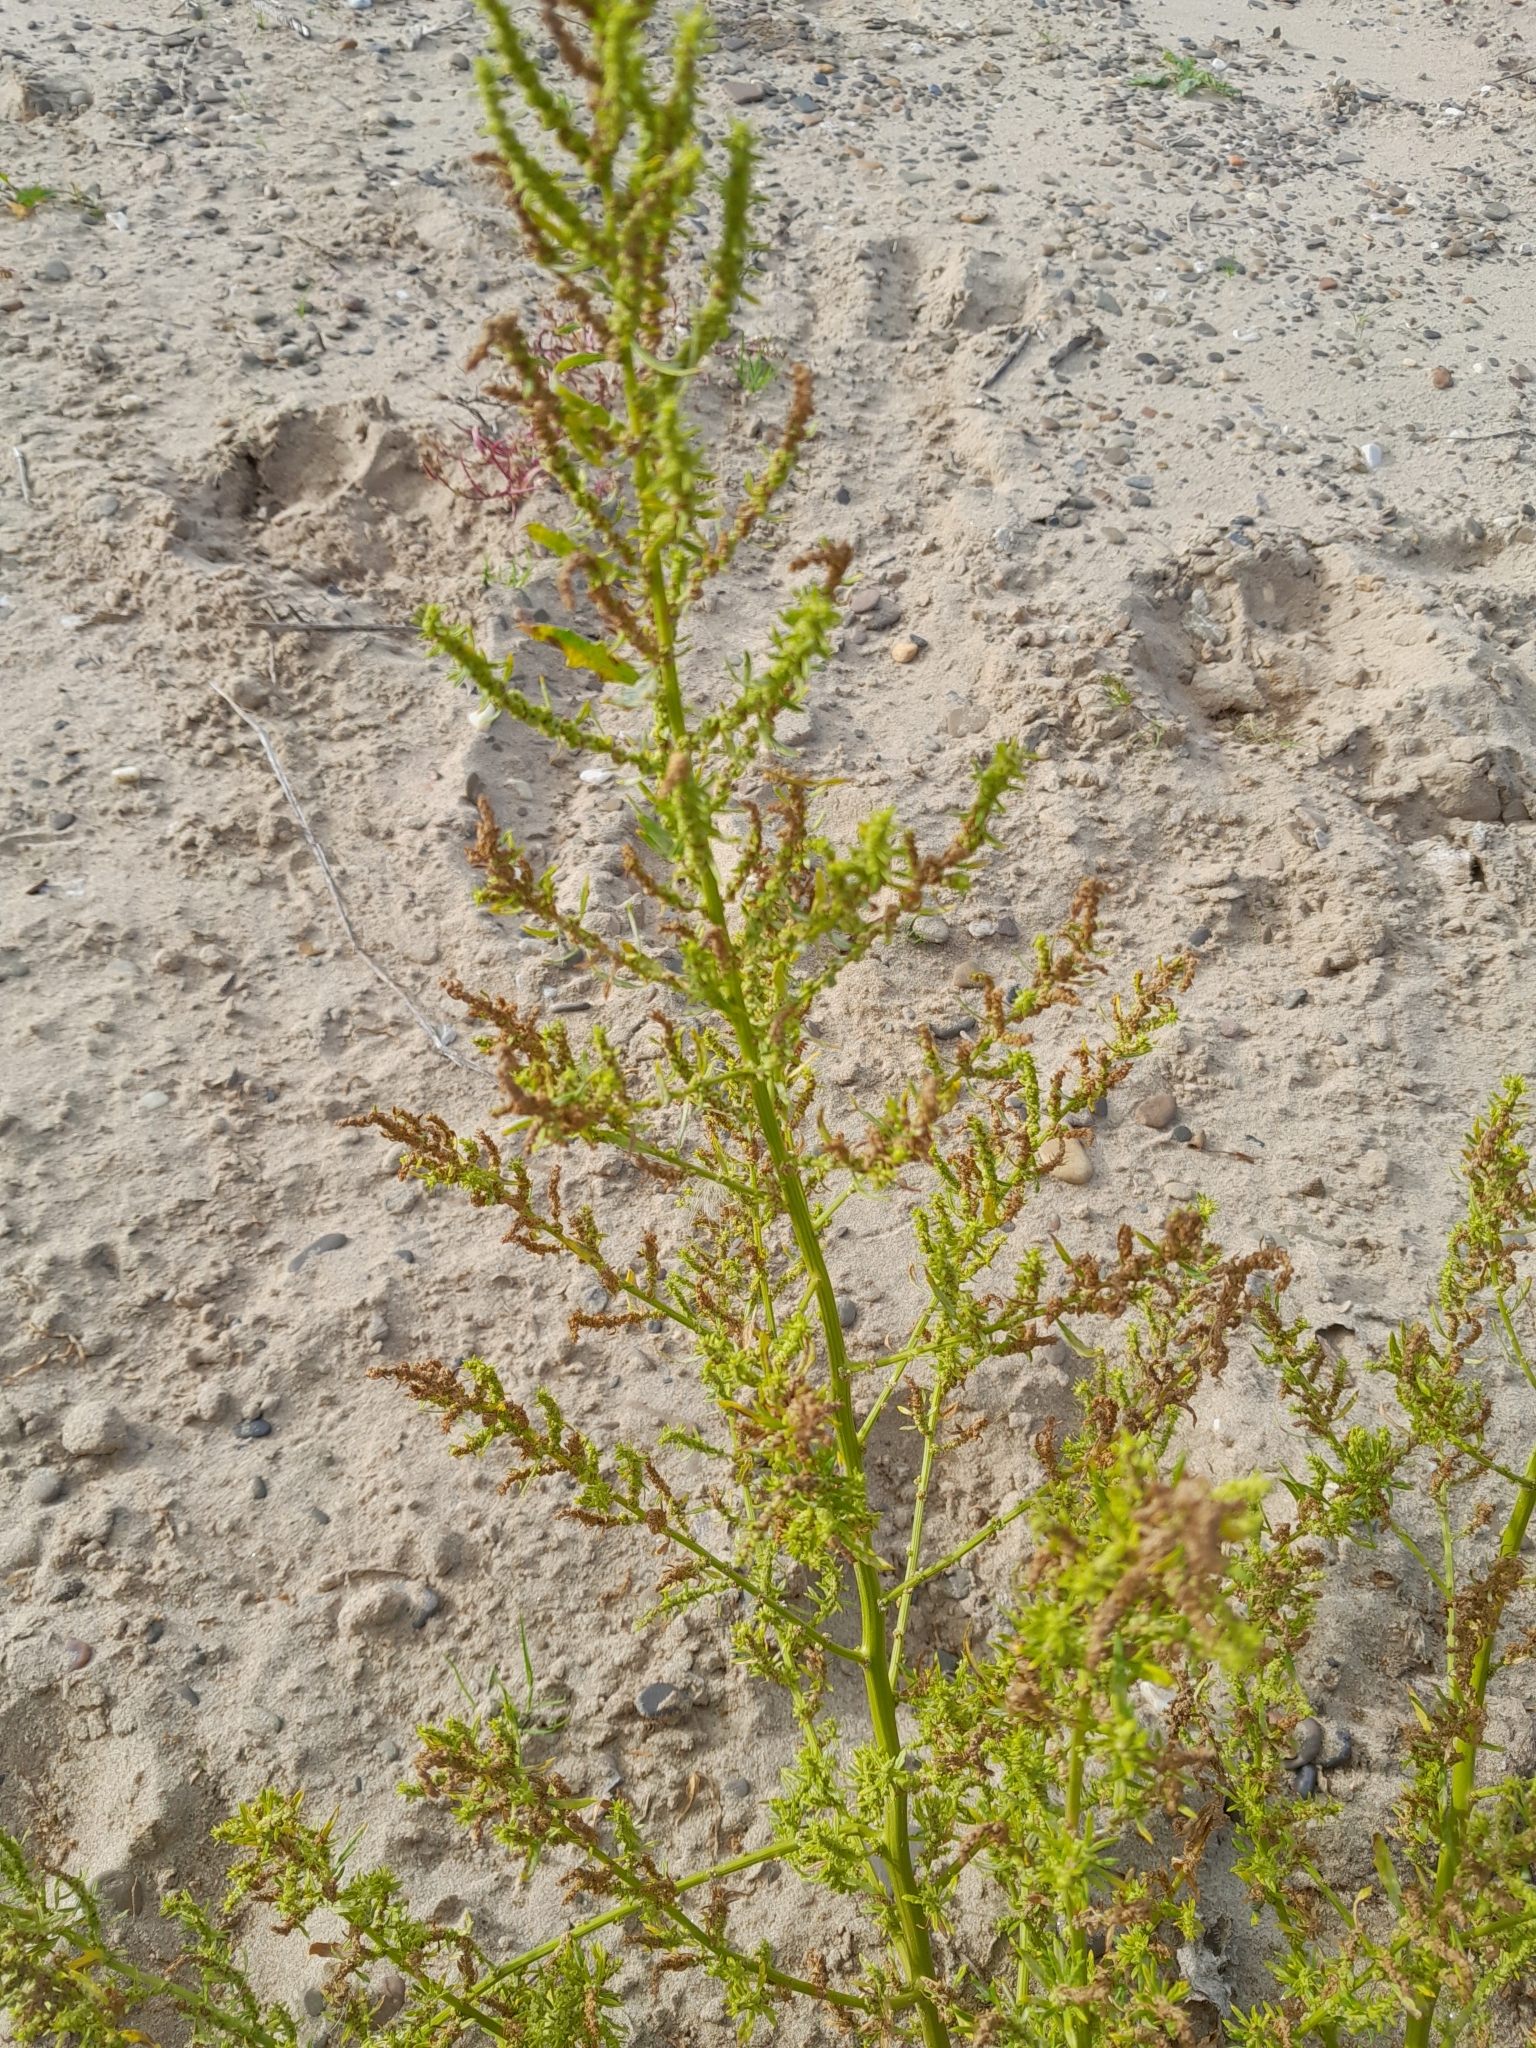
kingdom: Plantae
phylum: Tracheophyta
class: Magnoliopsida
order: Caryophyllales
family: Amaranthaceae
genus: Dysphania
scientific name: Dysphania ambrosioides
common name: Wormseed
